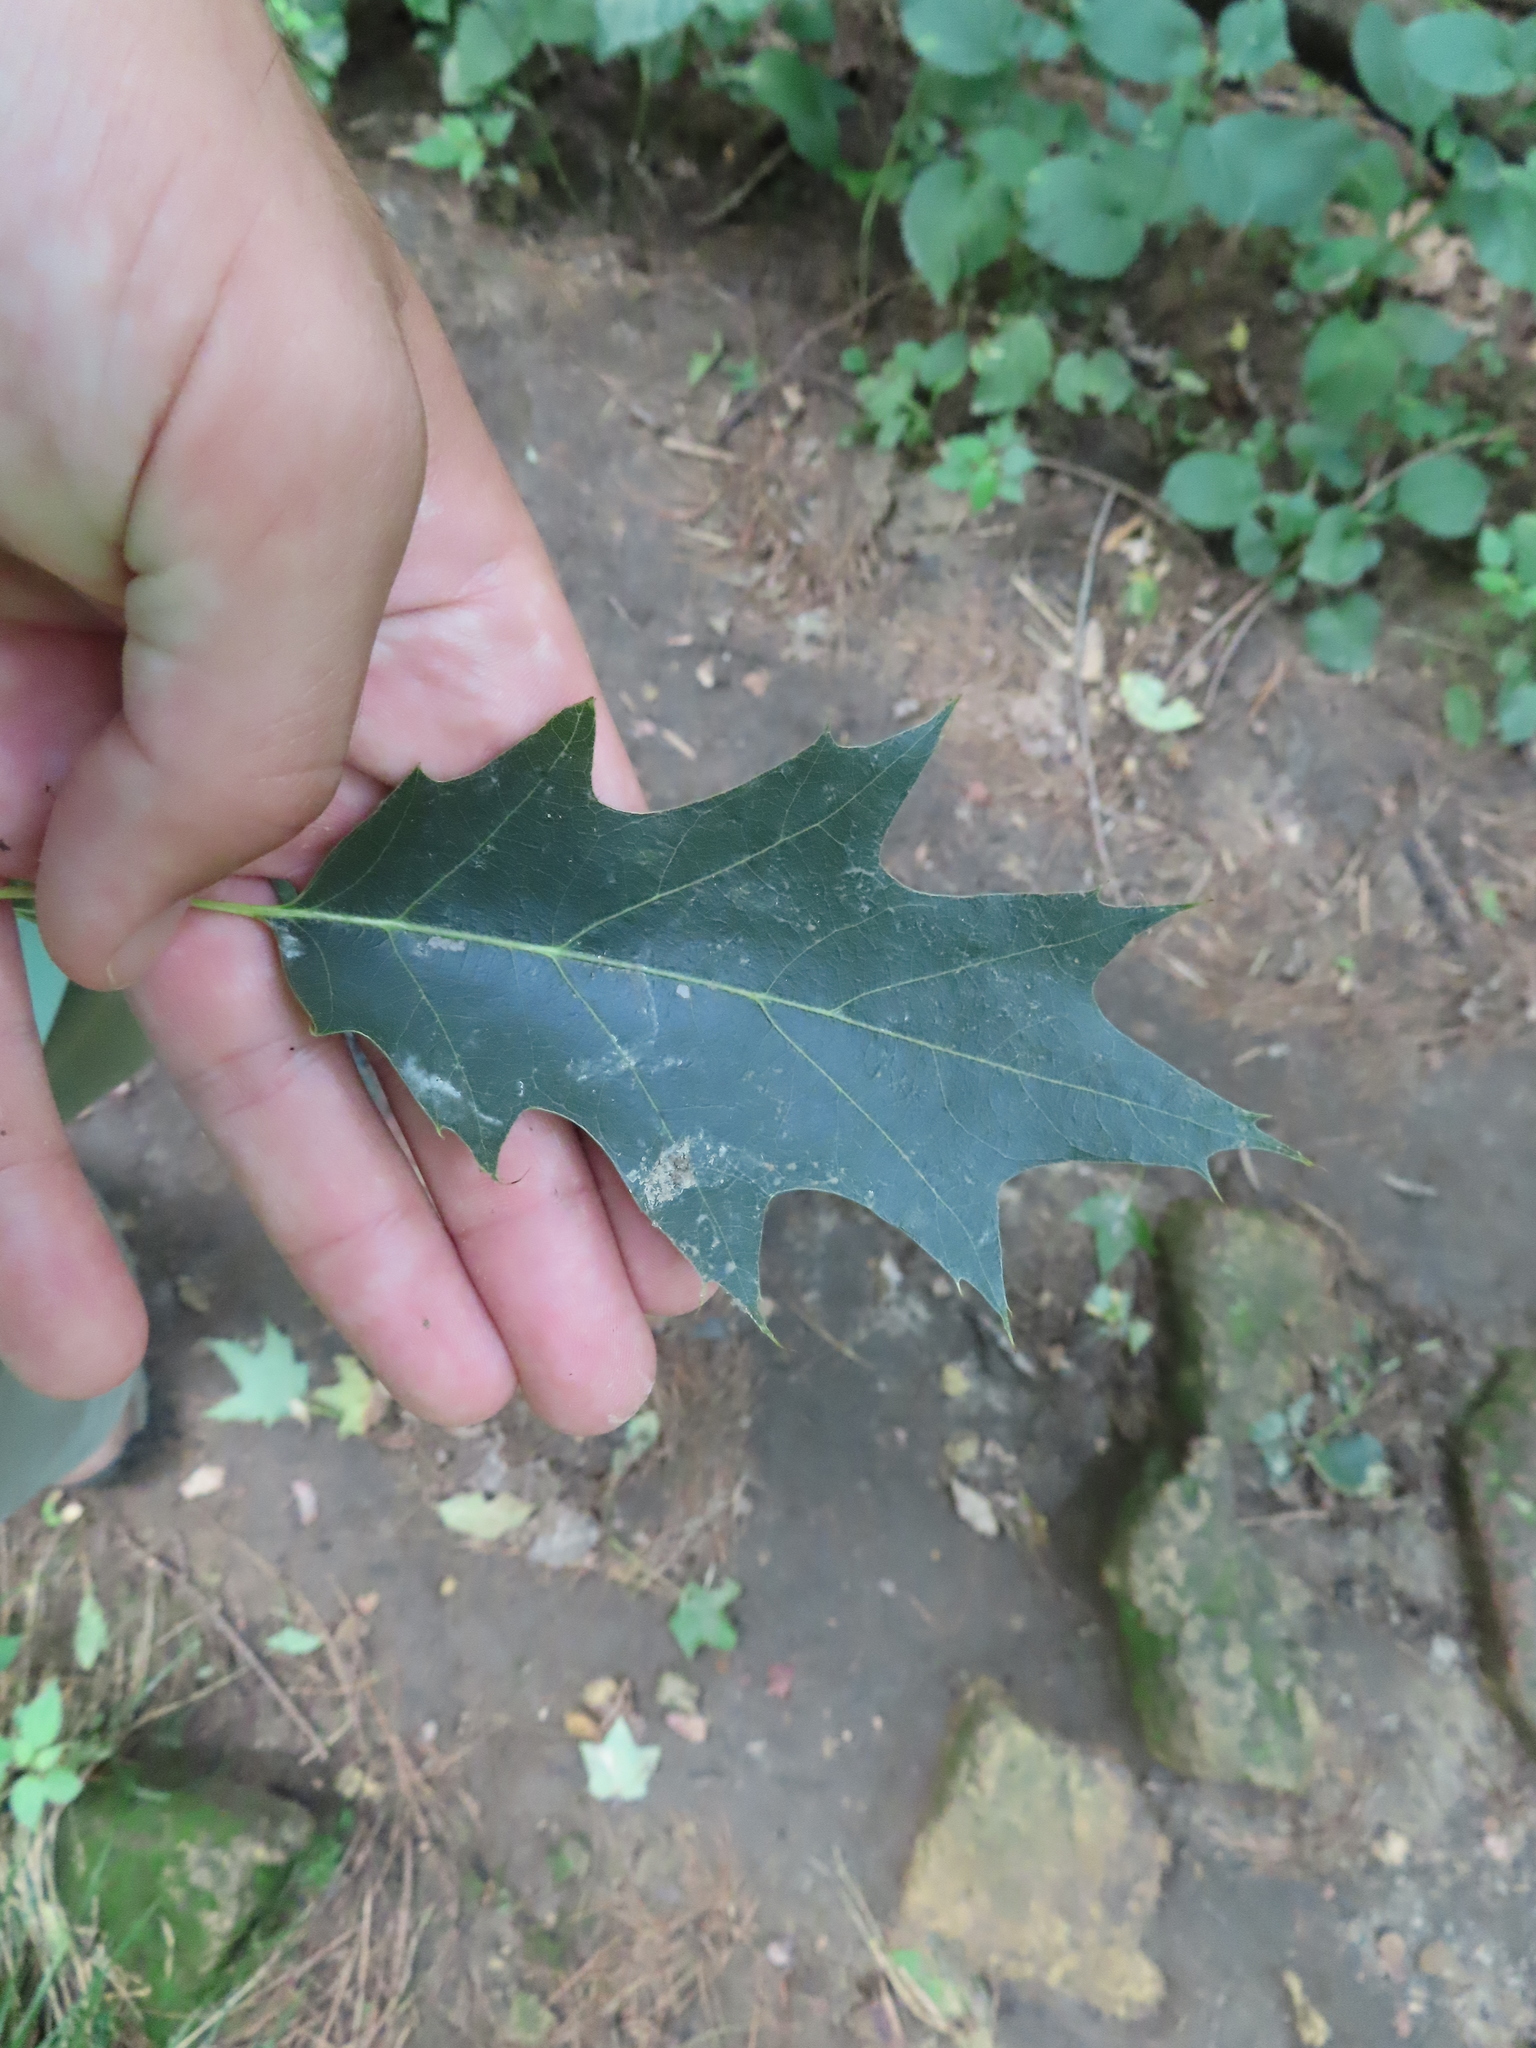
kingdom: Plantae
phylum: Tracheophyta
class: Magnoliopsida
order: Fagales
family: Fagaceae
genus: Quercus
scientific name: Quercus
